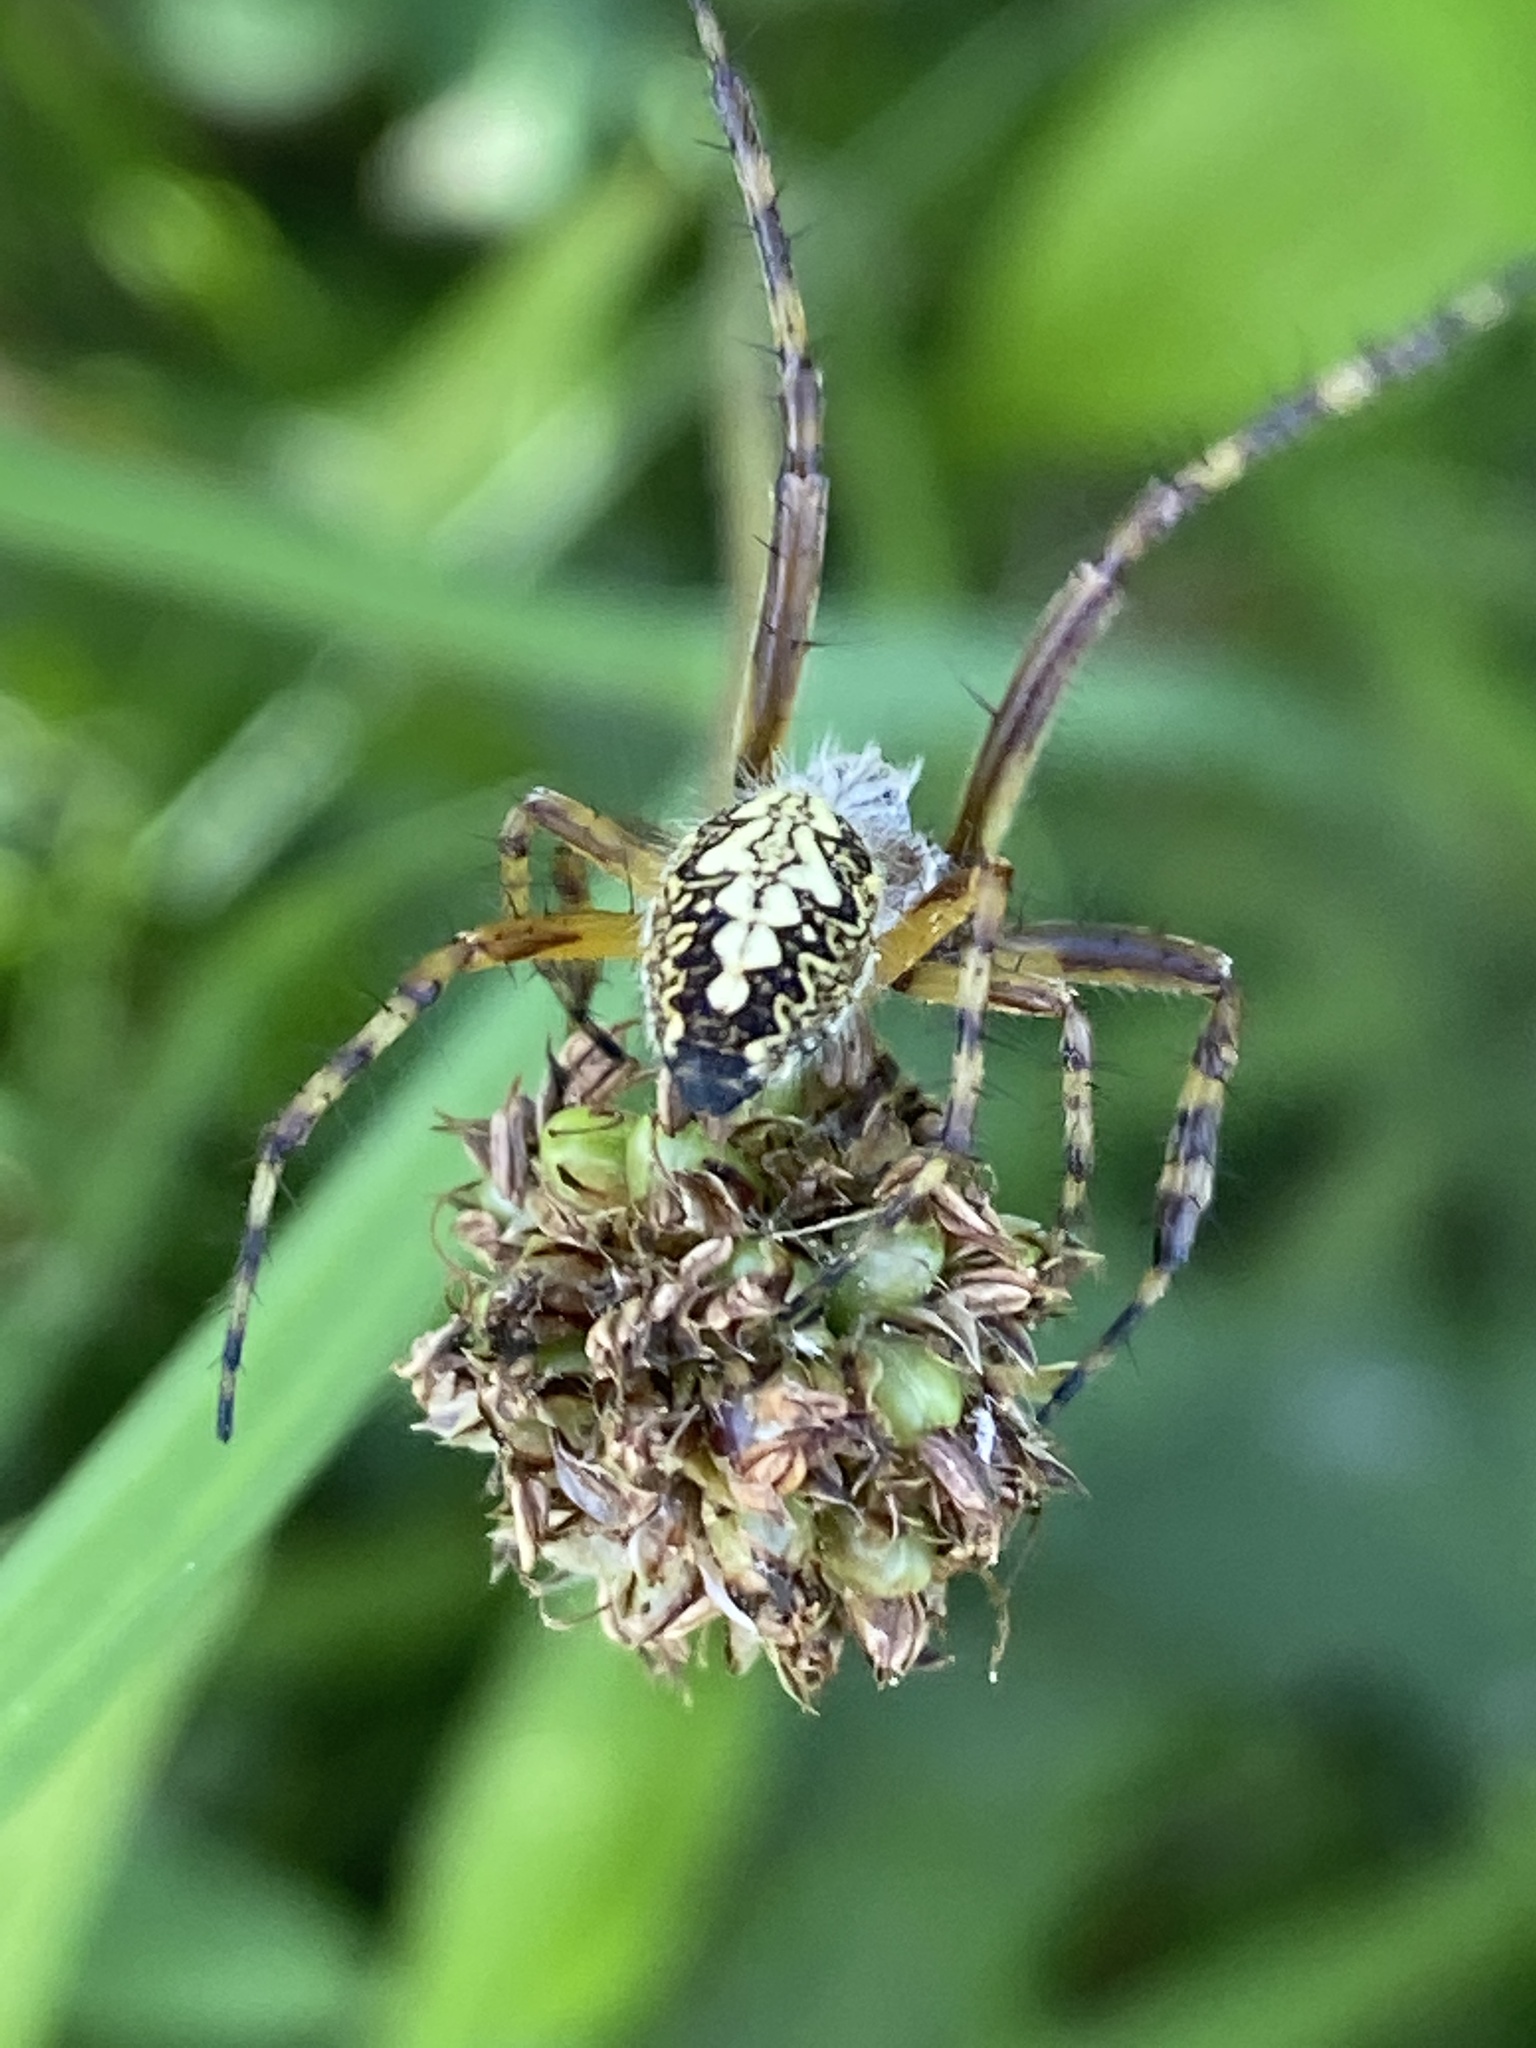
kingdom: Animalia
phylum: Arthropoda
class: Arachnida
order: Araneae
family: Araneidae
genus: Aculepeira
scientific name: Aculepeira ceropegia
